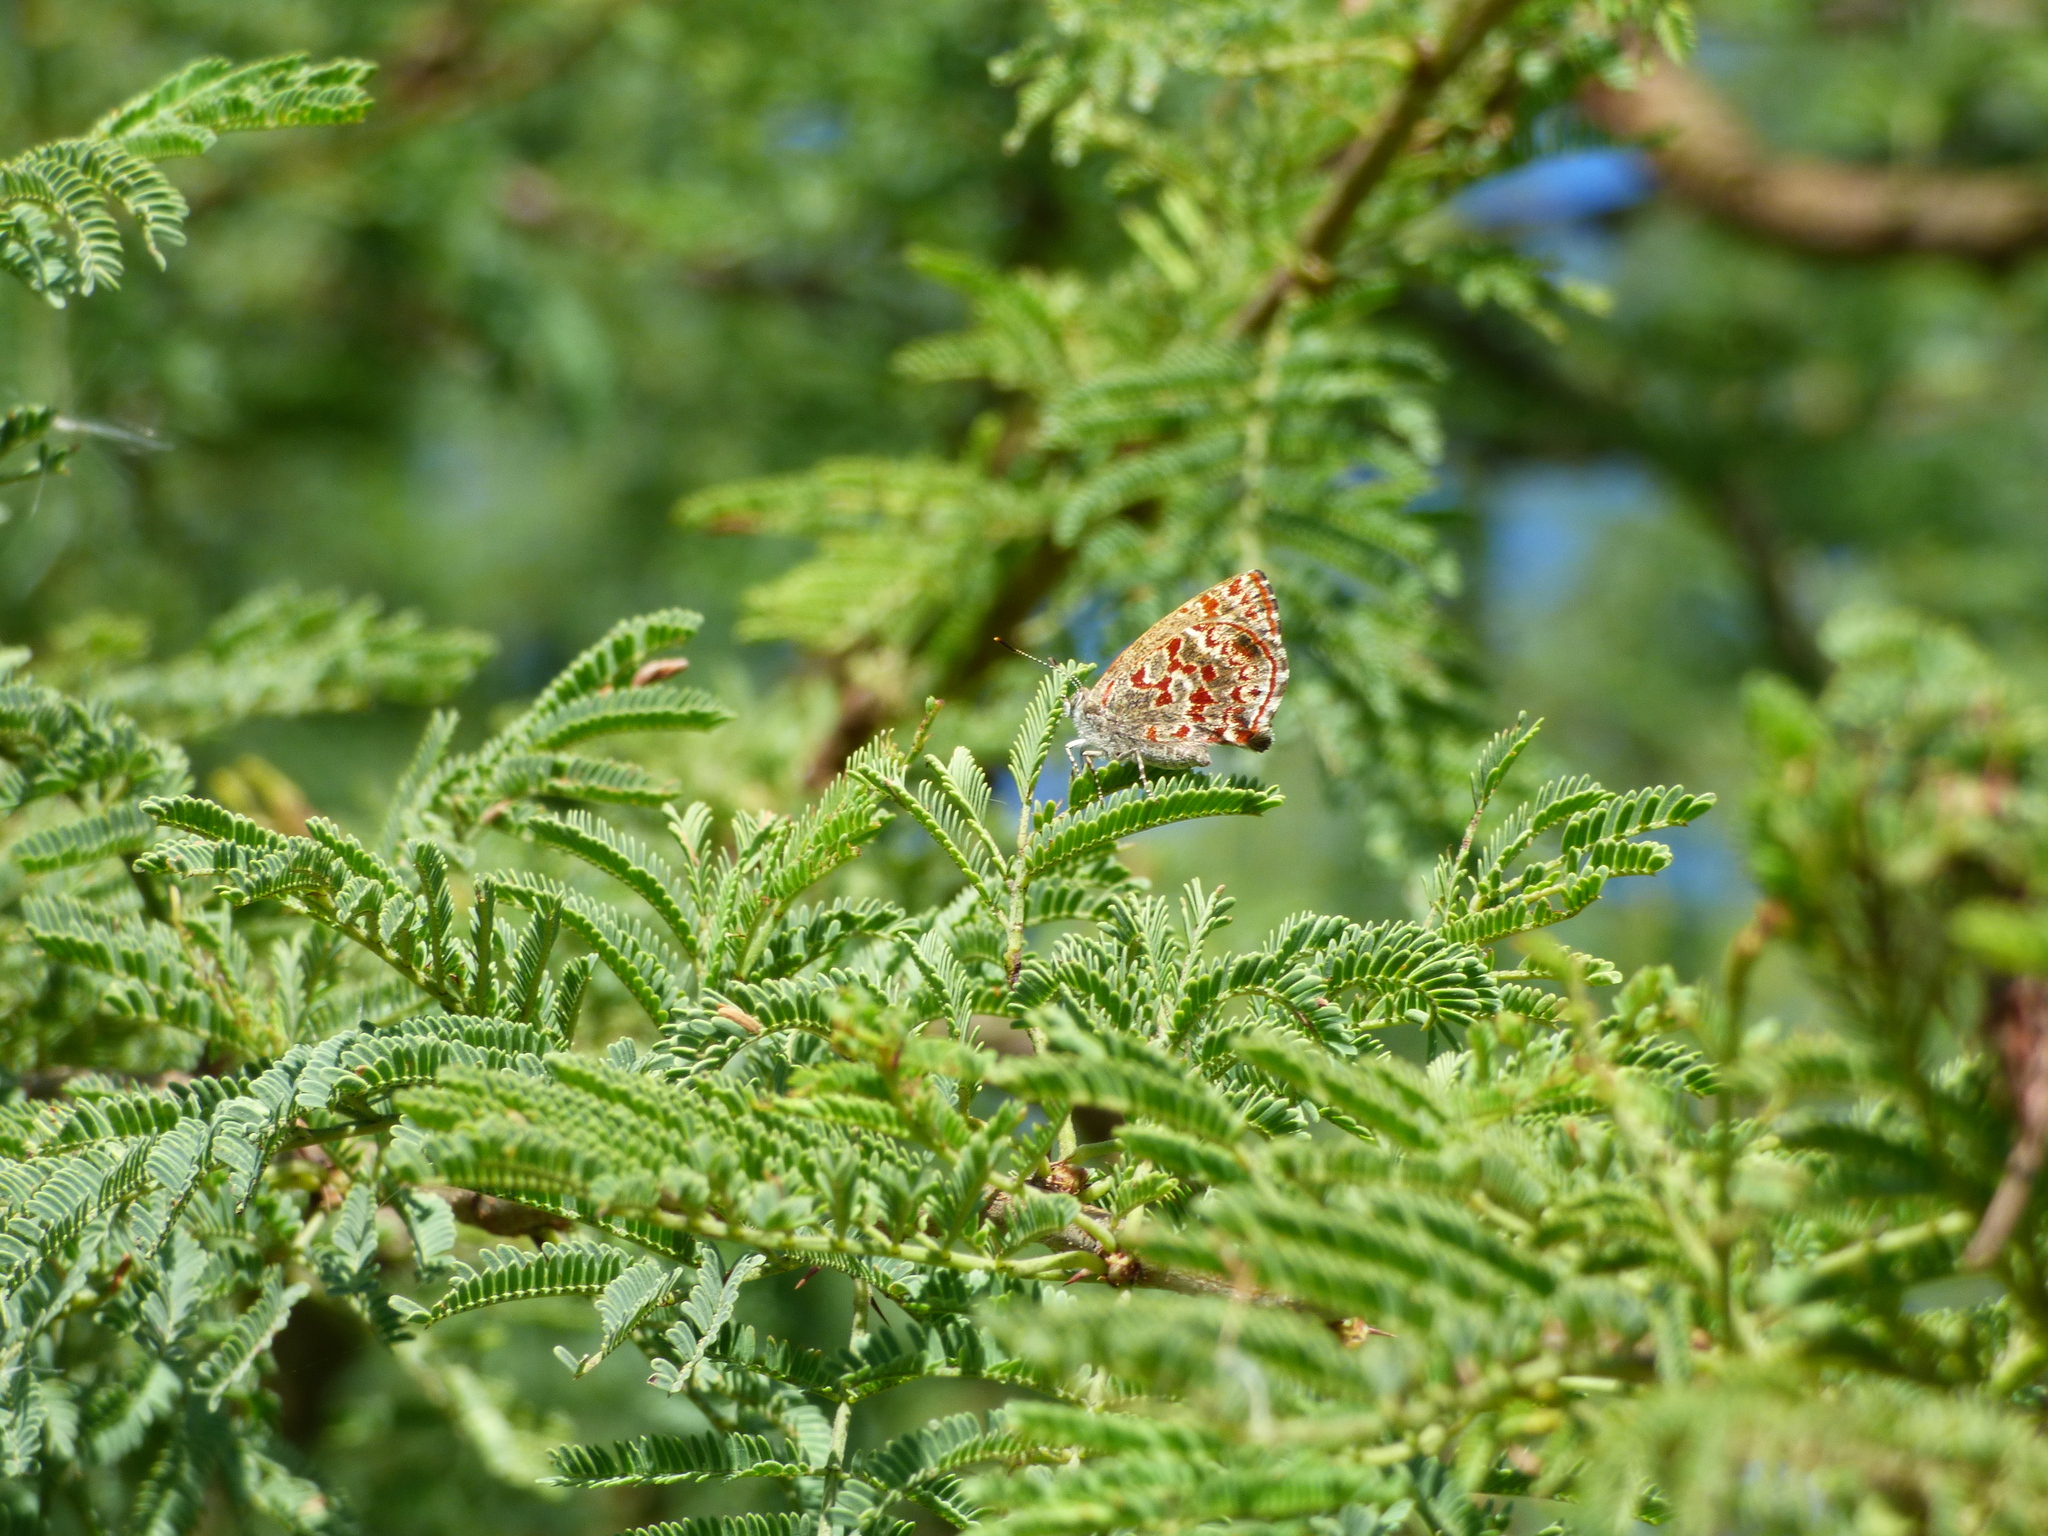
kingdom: Animalia
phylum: Arthropoda
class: Insecta
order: Lepidoptera
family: Lycaenidae
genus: Ministrymon
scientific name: Ministrymon
